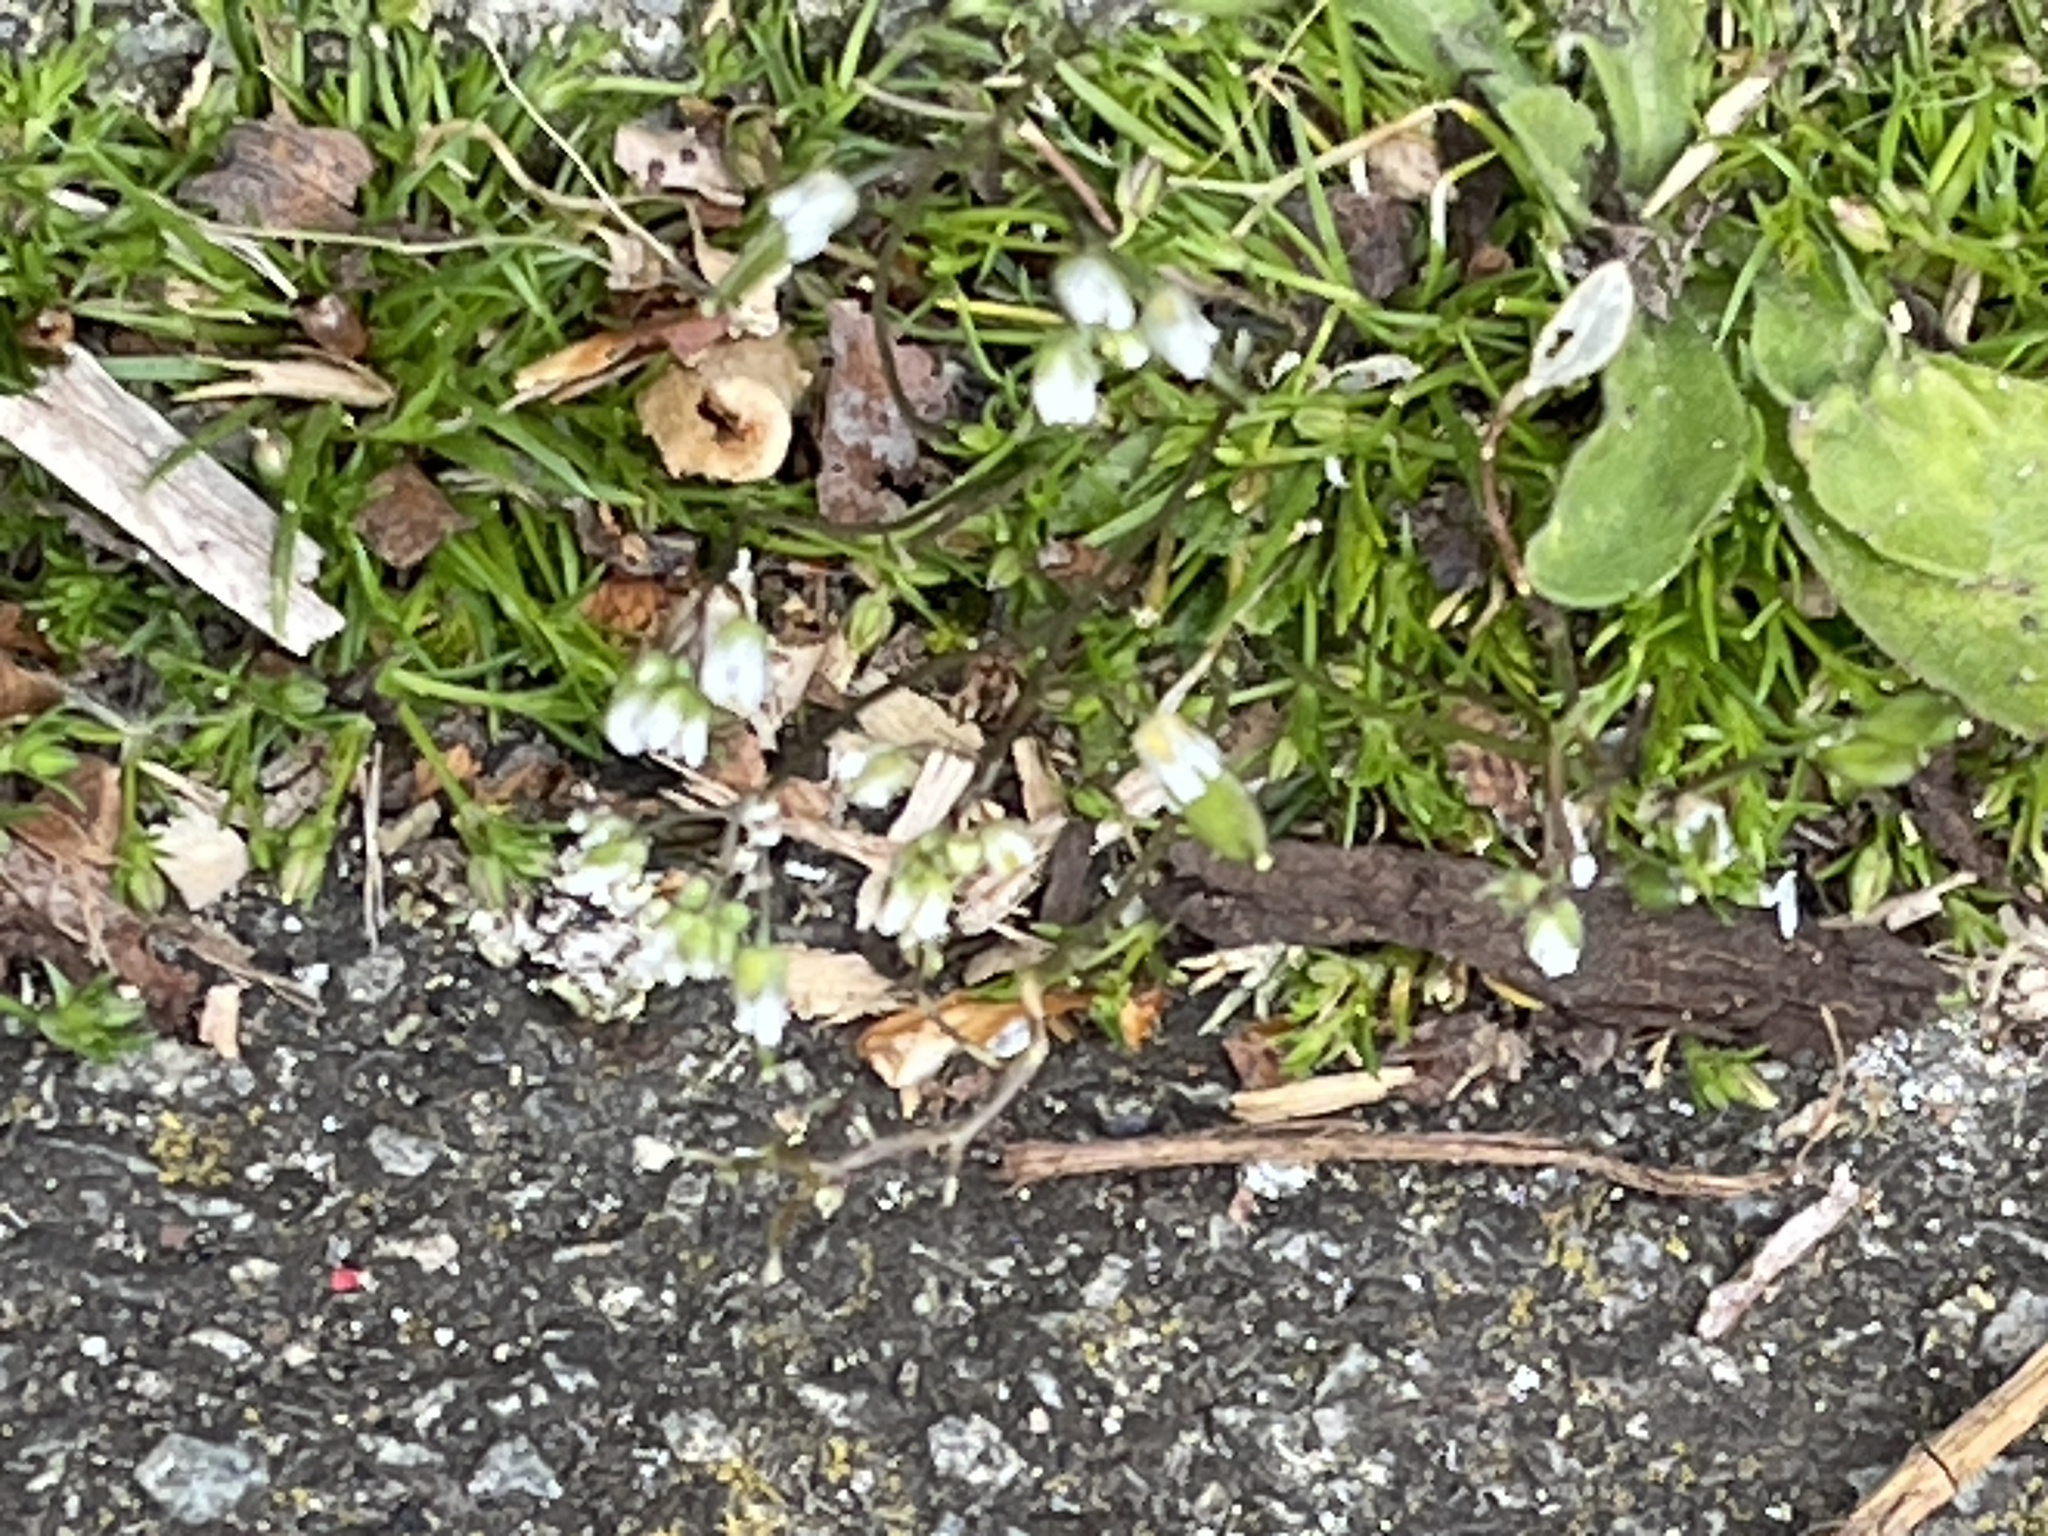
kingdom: Plantae
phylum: Tracheophyta
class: Magnoliopsida
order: Brassicales
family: Brassicaceae
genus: Draba
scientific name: Draba verna
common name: Spring draba
